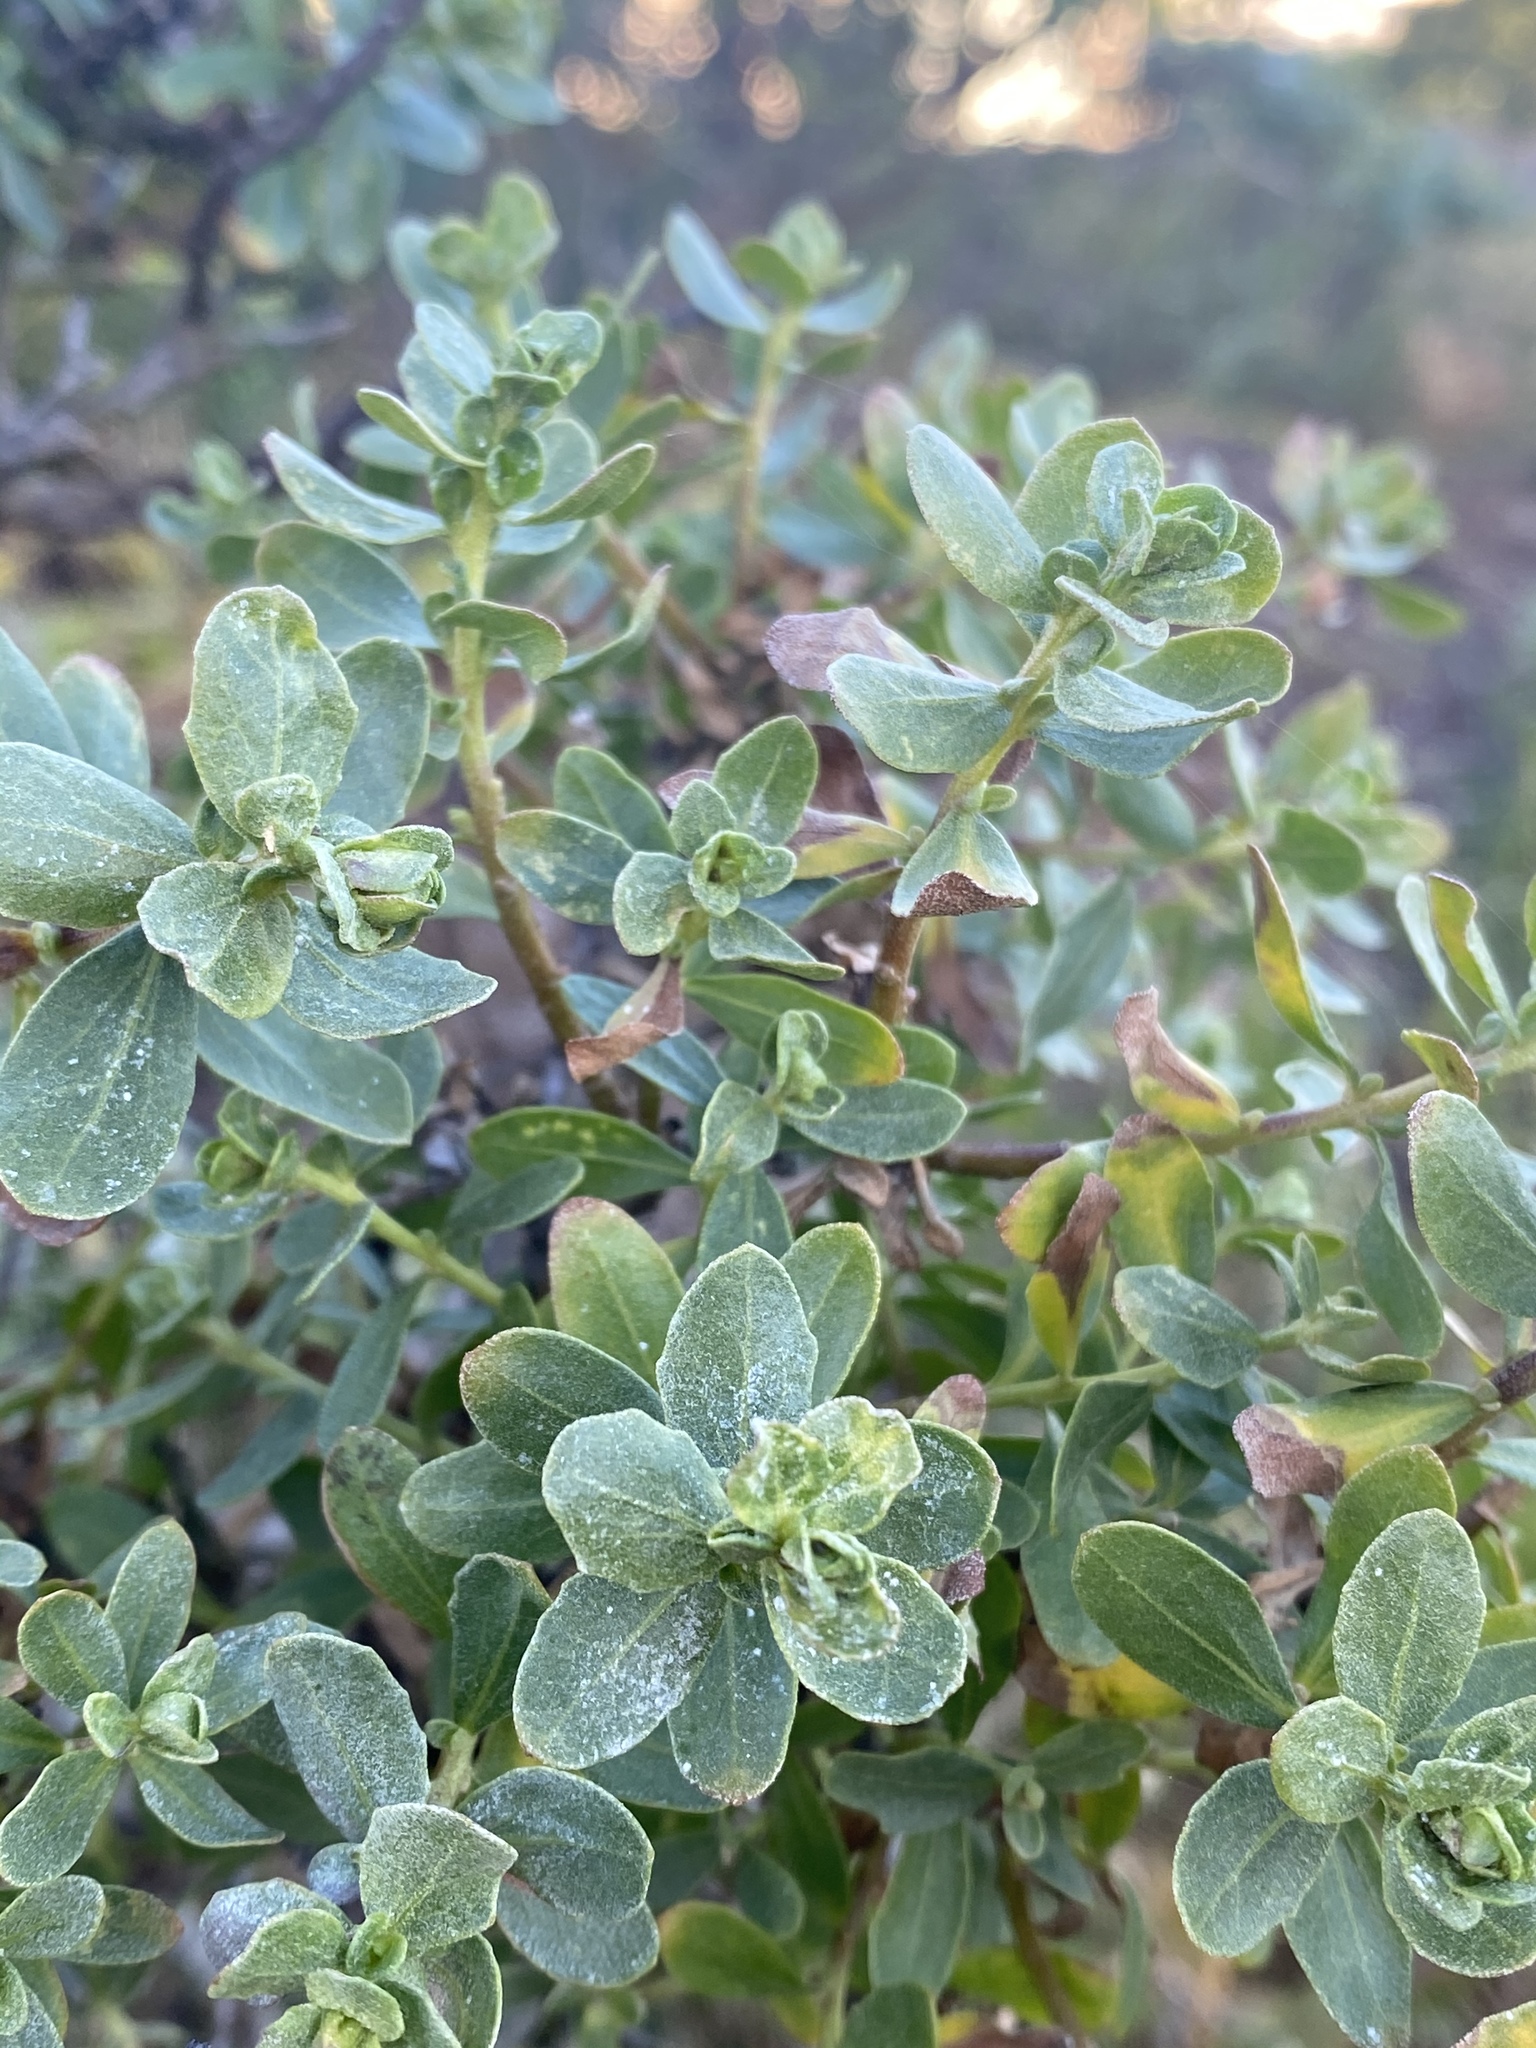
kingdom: Plantae
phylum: Tracheophyta
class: Magnoliopsida
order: Asterales
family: Asteraceae
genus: Baccharis
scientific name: Baccharis pilularis
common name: Coyotebrush
